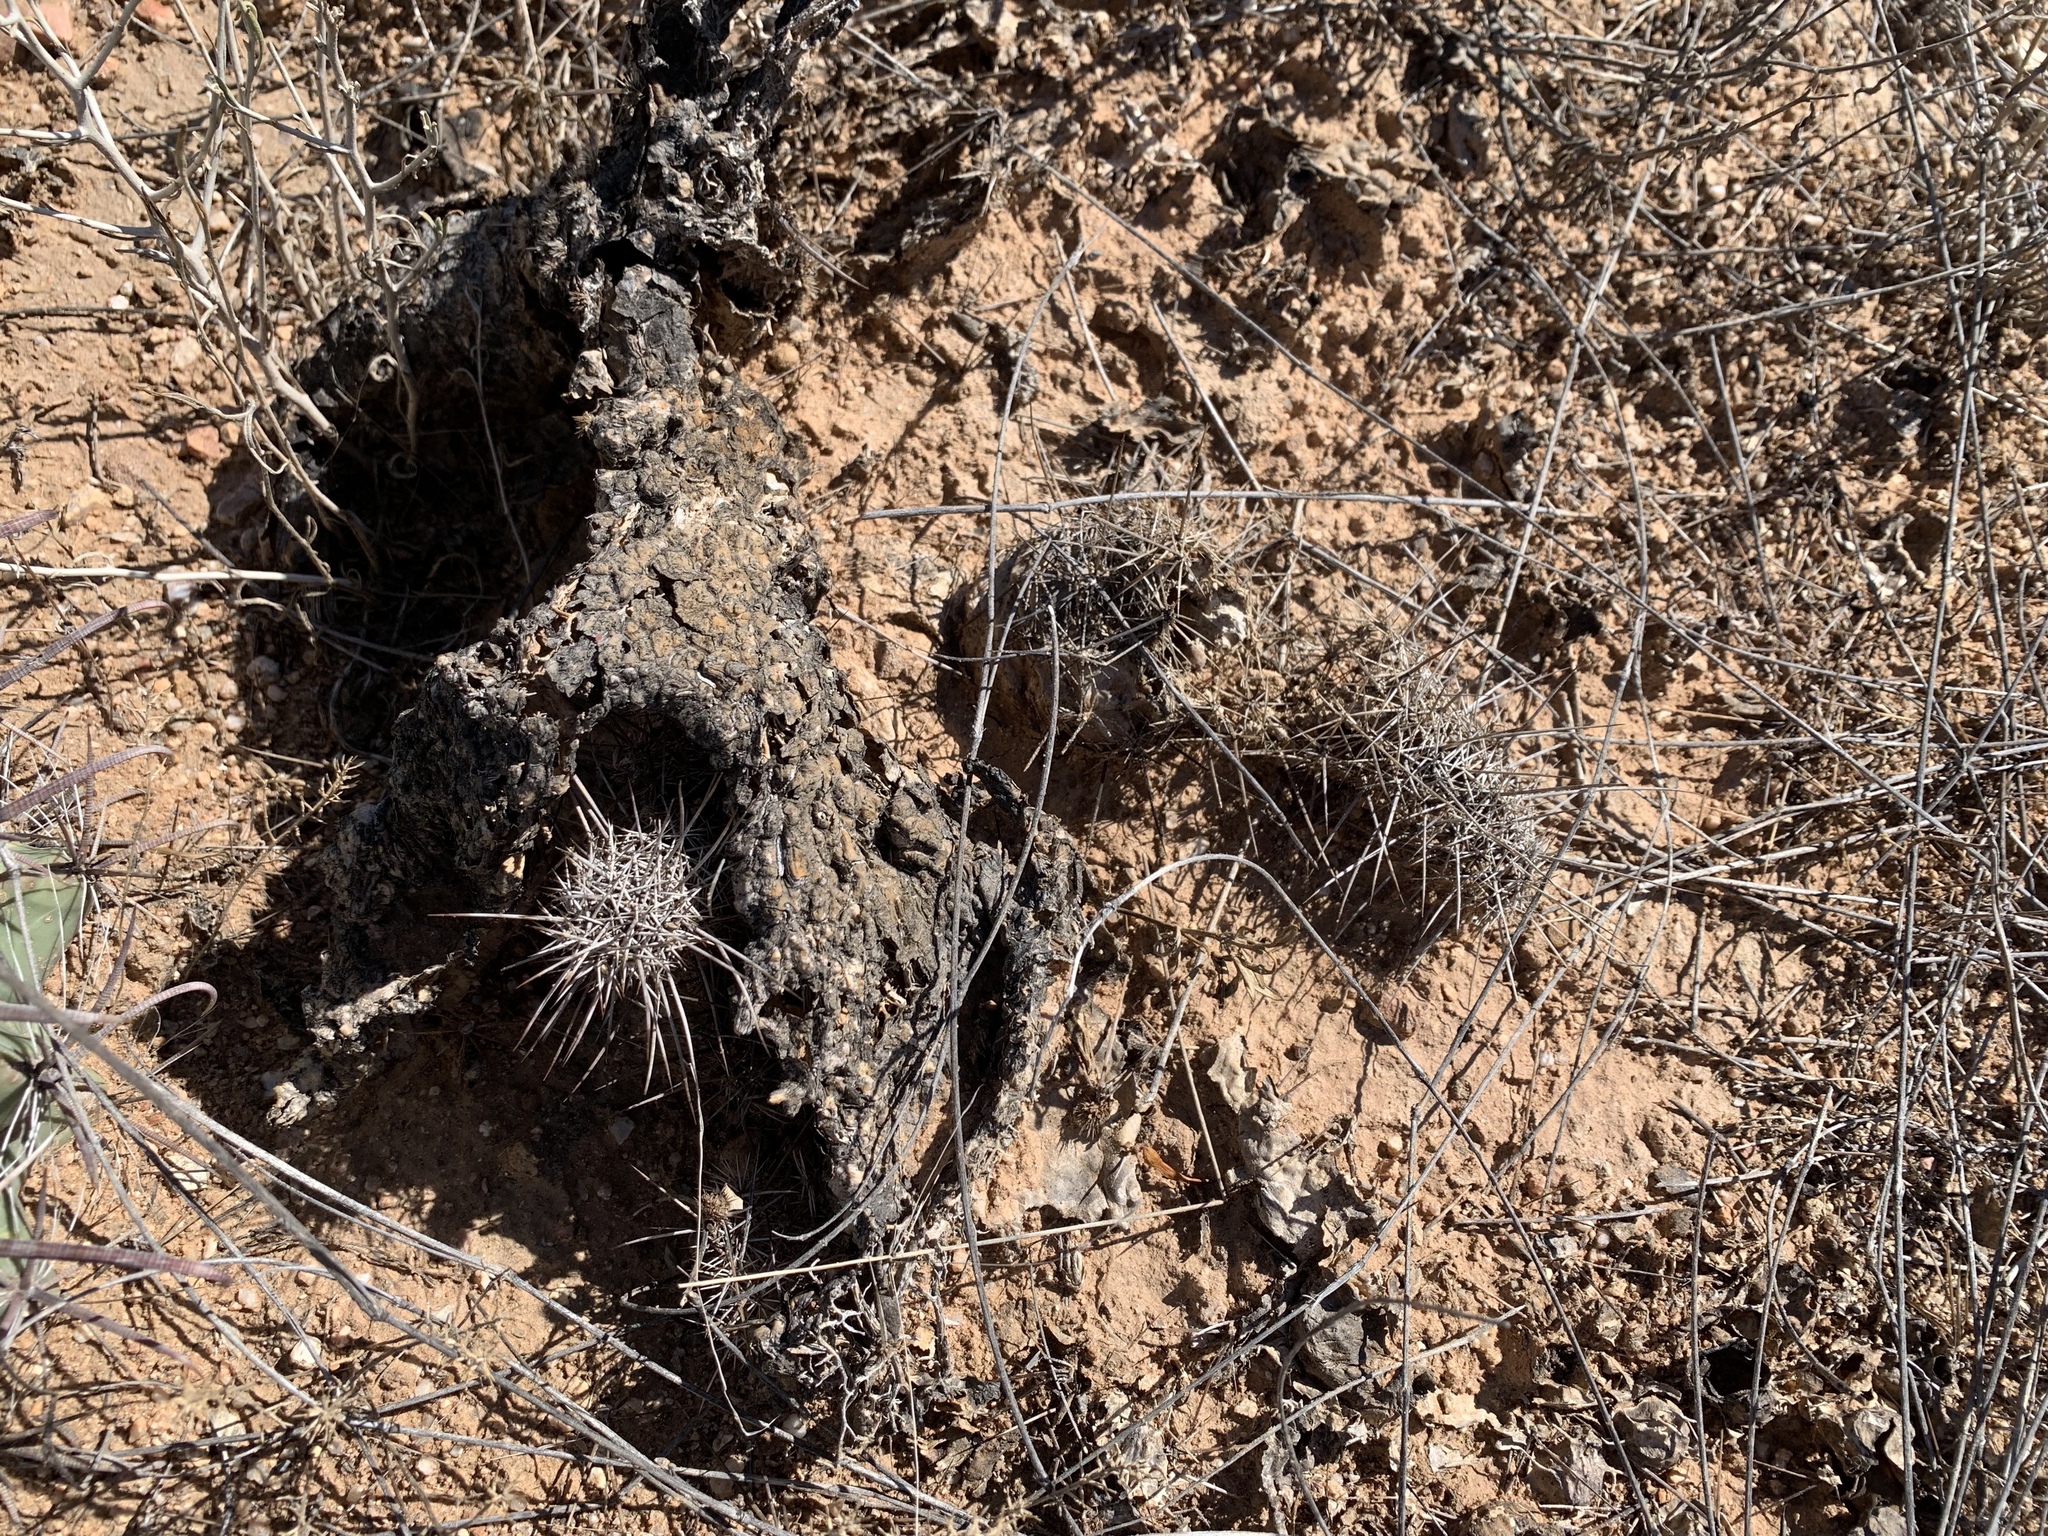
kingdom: Plantae
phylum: Tracheophyta
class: Magnoliopsida
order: Caryophyllales
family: Cactaceae
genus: Echinocereus
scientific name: Echinocereus fasciculatus
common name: Bundle hedgehog
